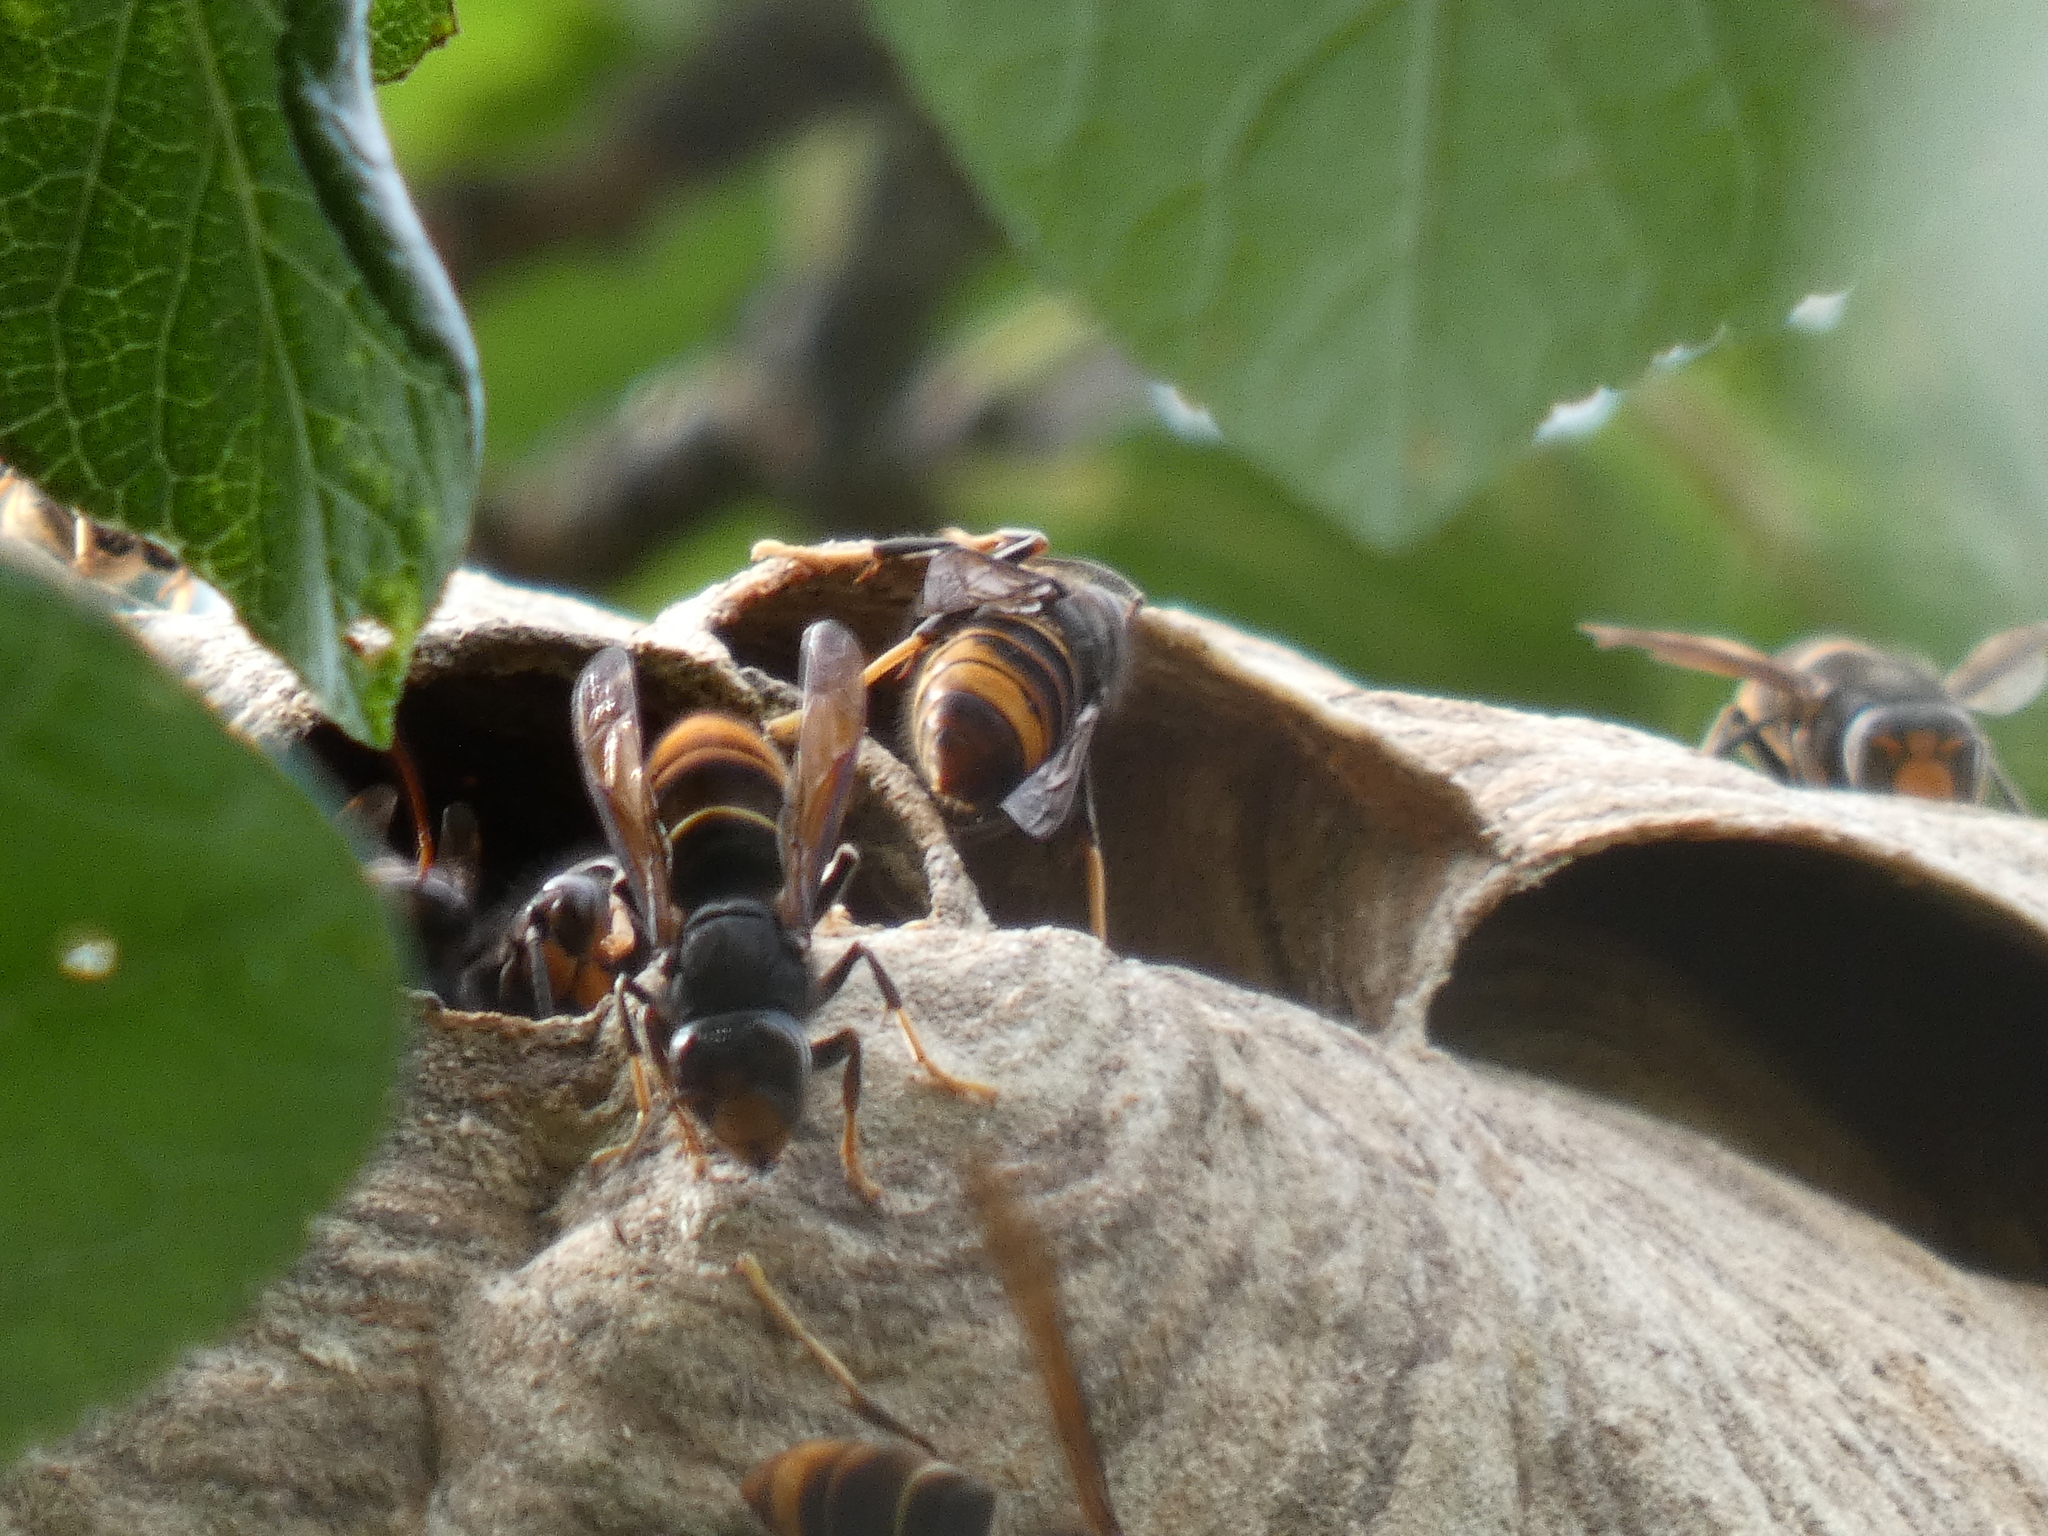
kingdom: Animalia
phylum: Arthropoda
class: Insecta
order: Hymenoptera
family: Vespidae
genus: Vespa
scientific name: Vespa velutina
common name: Asian hornet
